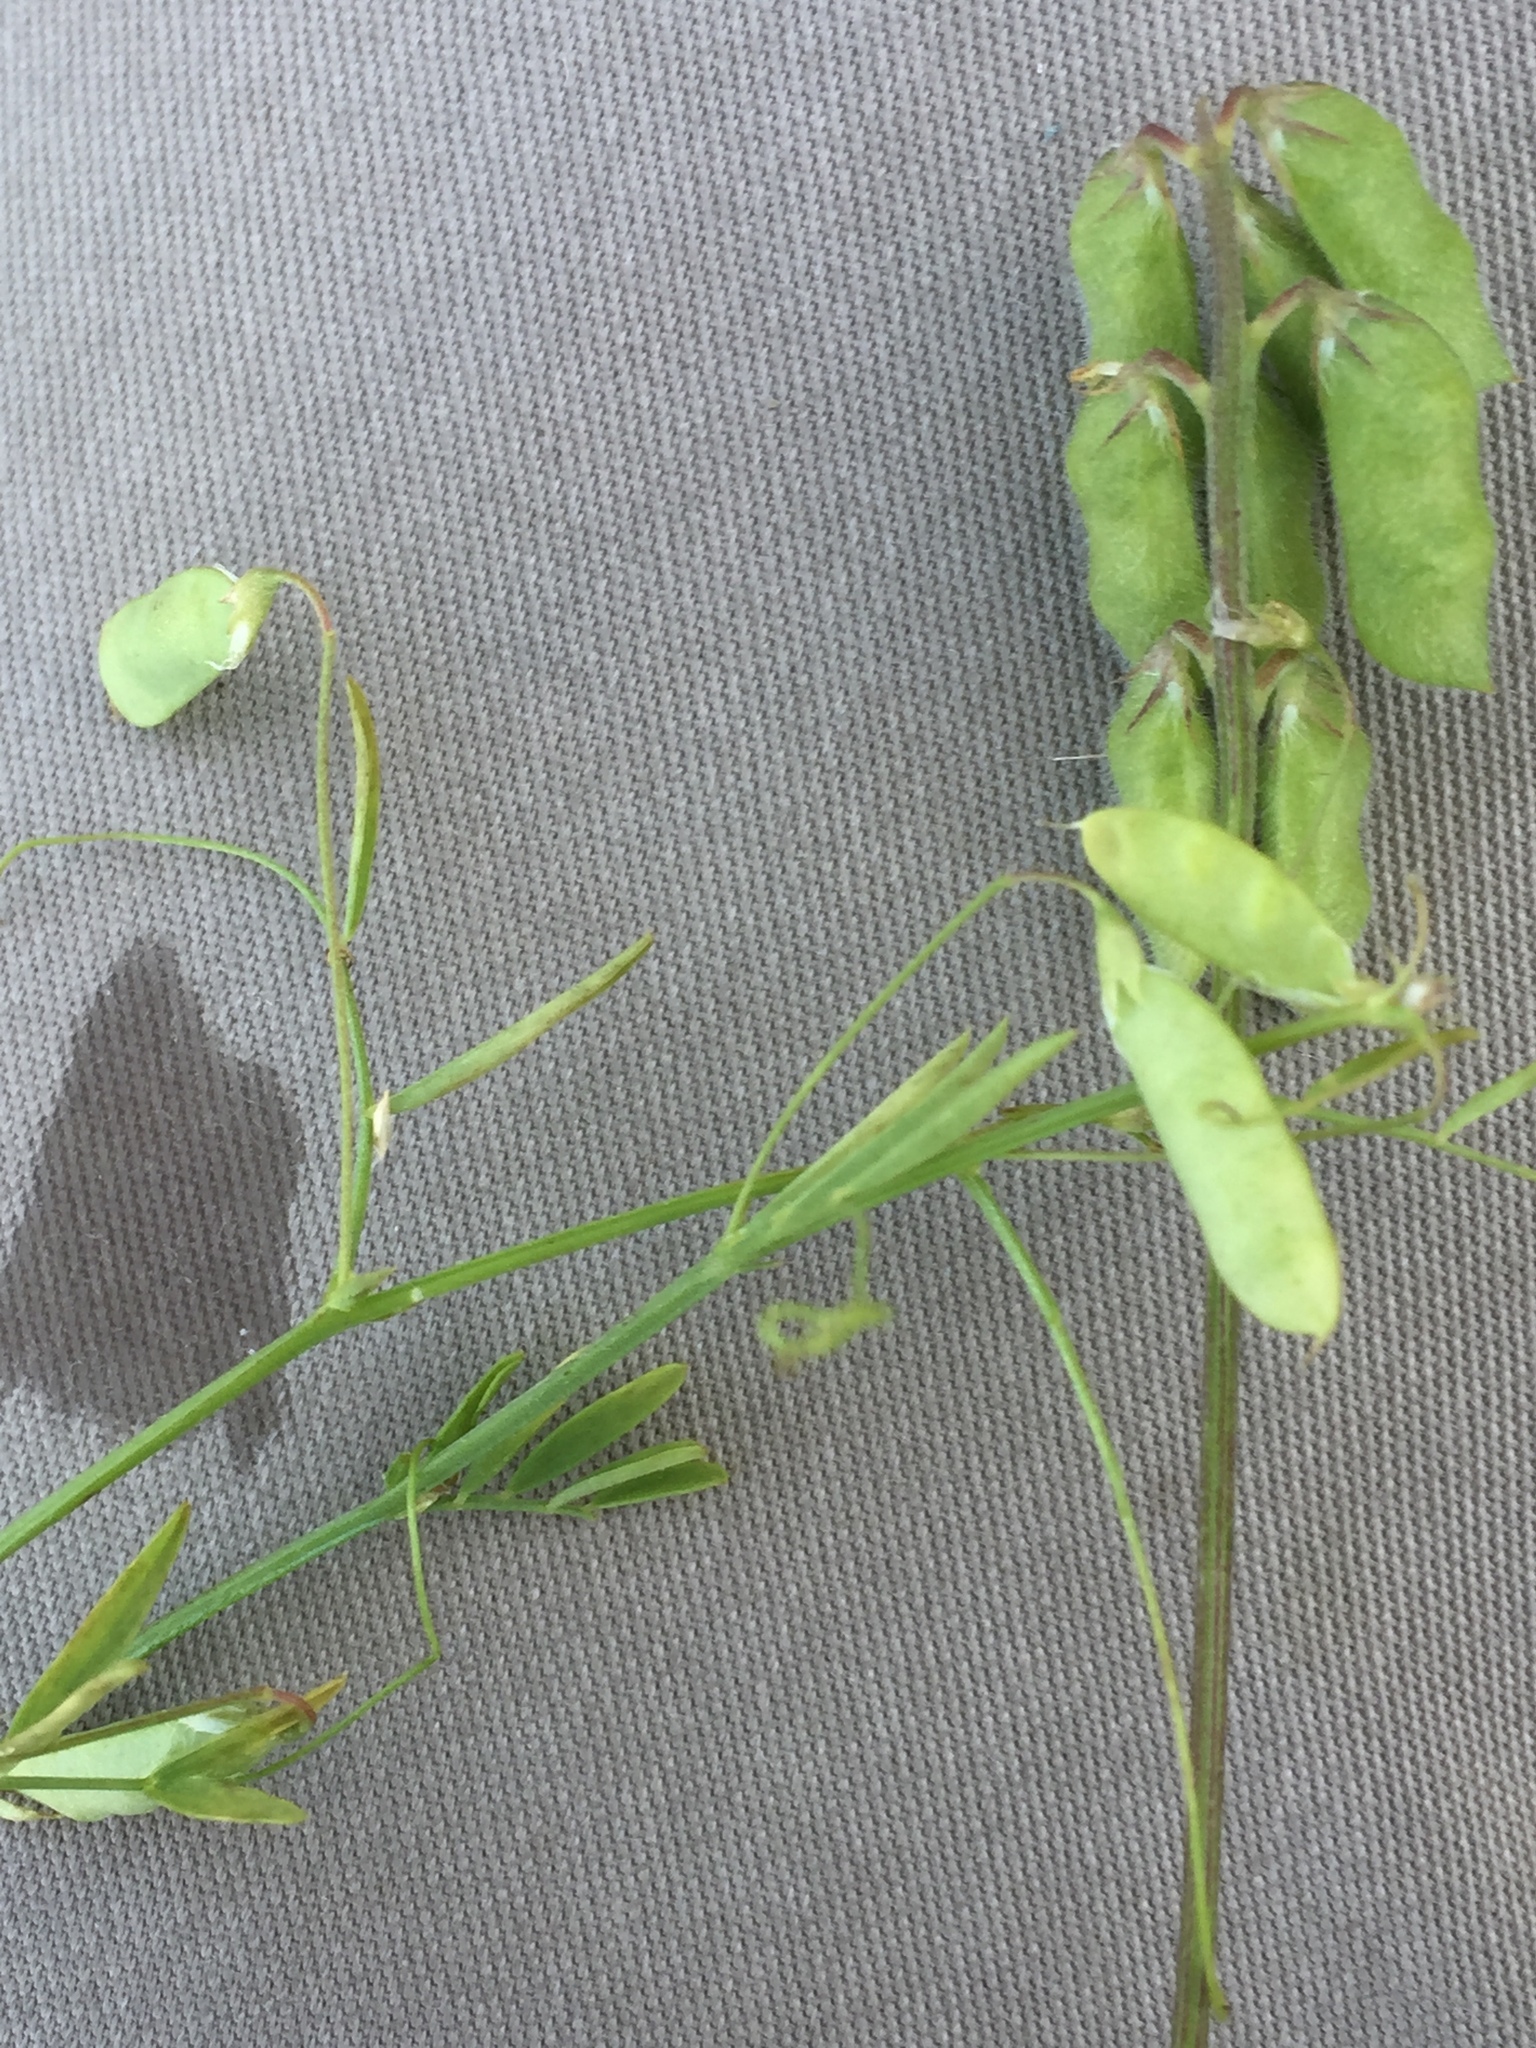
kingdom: Plantae
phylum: Tracheophyta
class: Magnoliopsida
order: Fabales
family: Fabaceae
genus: Vicia
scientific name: Vicia hirsuta
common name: Tiny vetch
